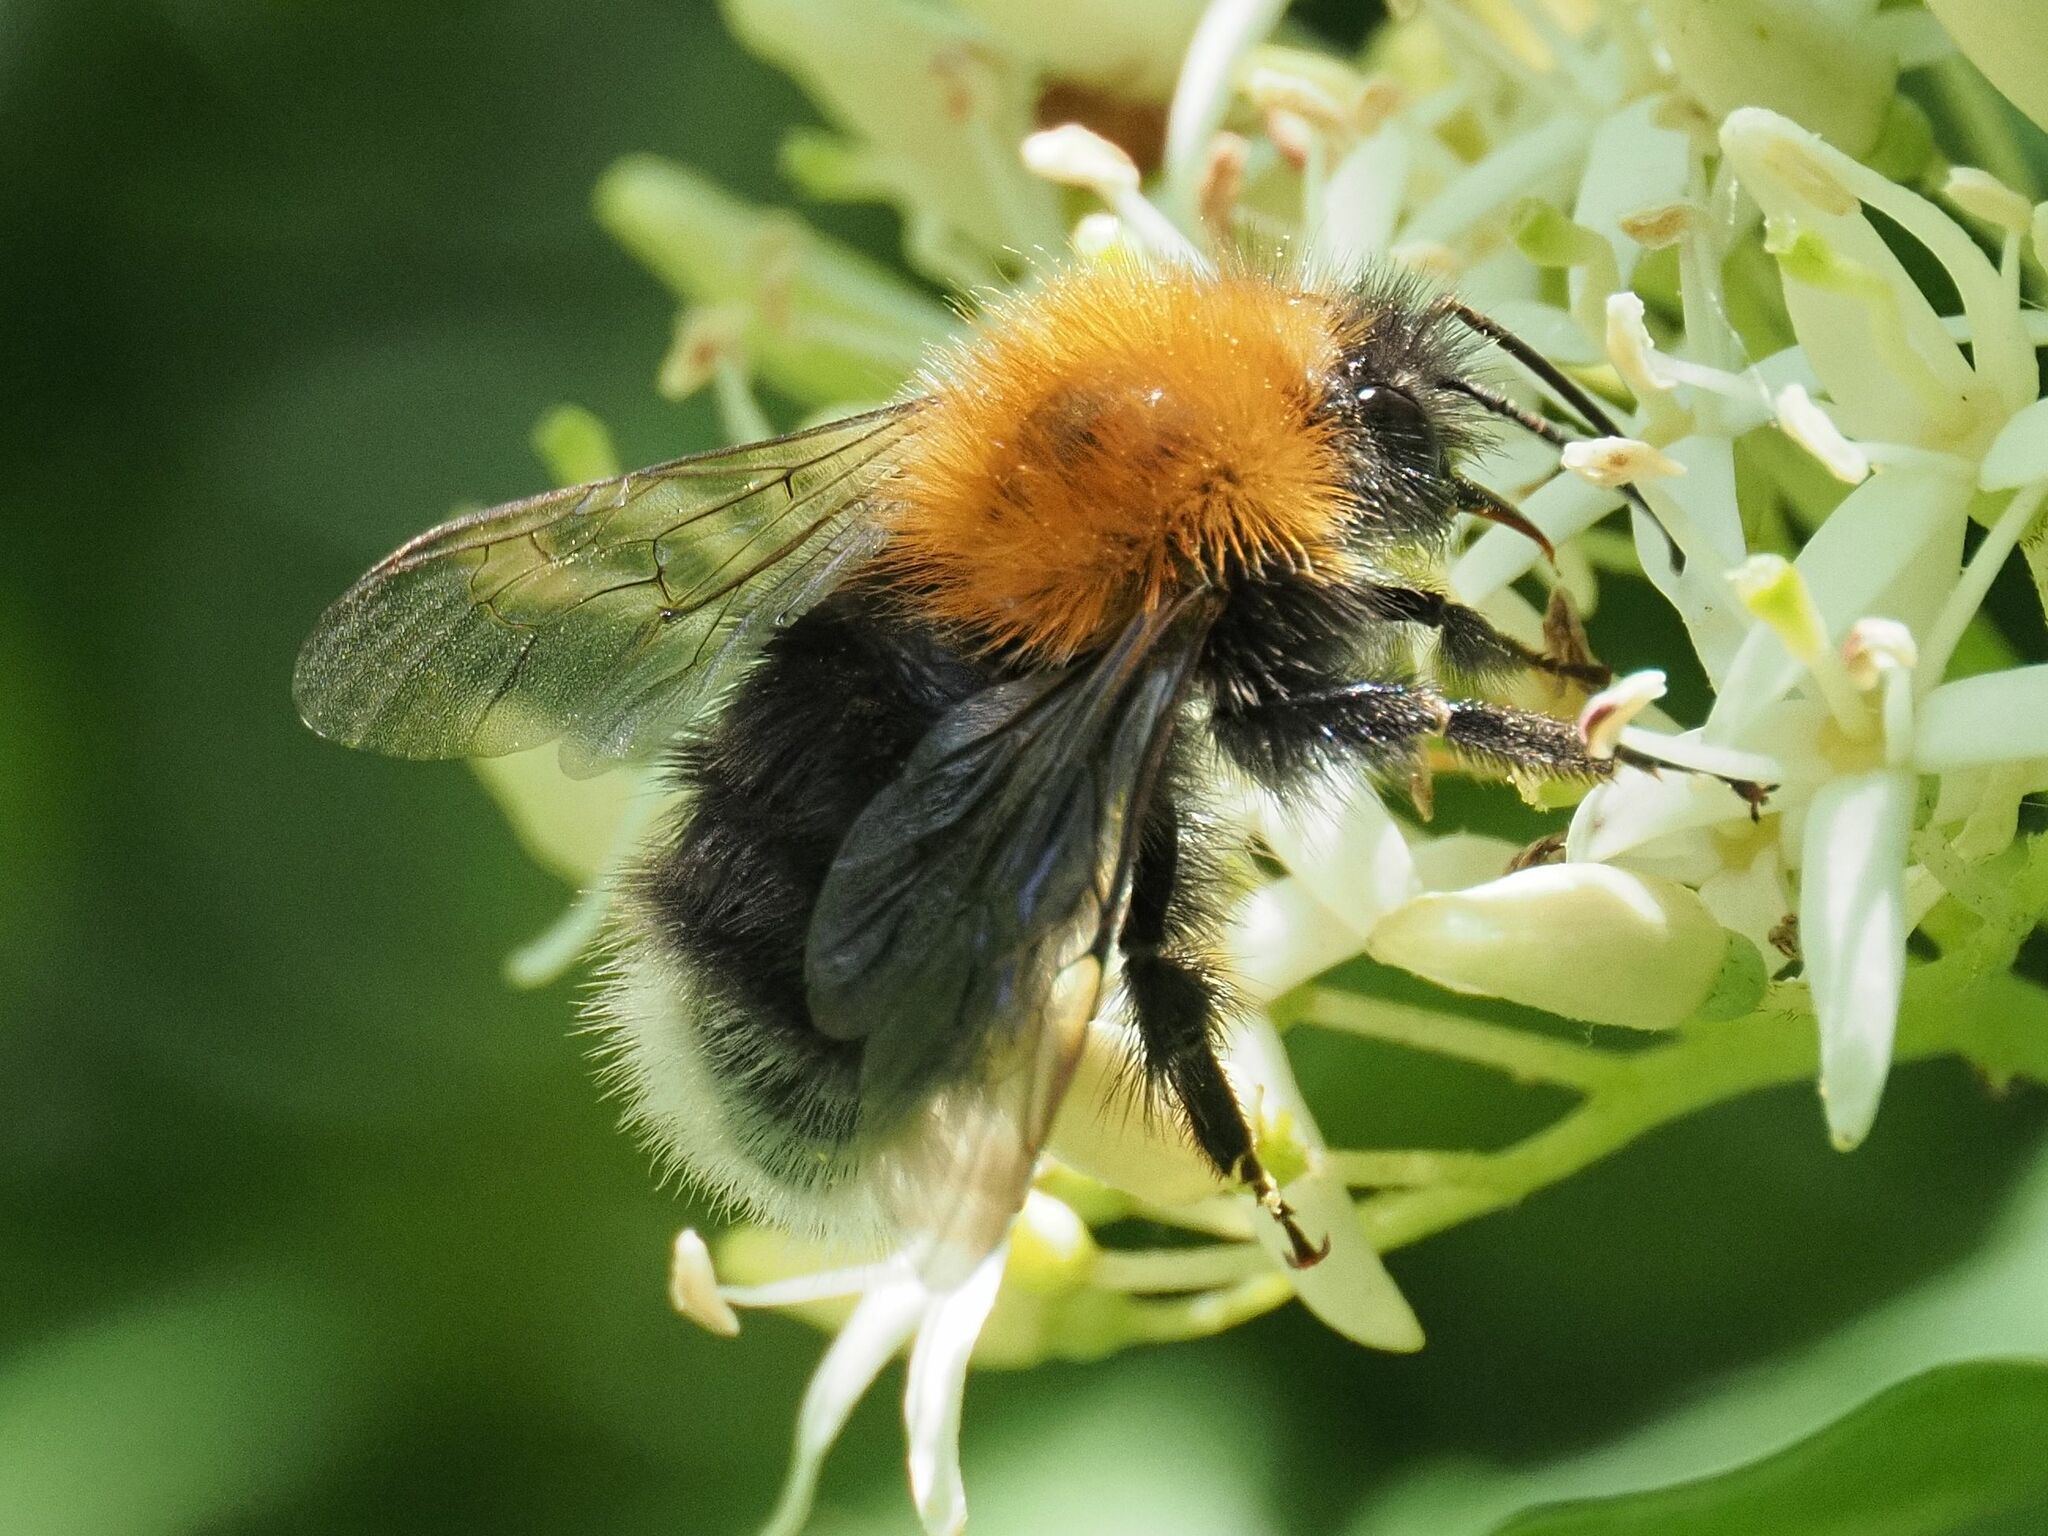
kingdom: Animalia
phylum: Arthropoda
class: Insecta
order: Hymenoptera
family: Apidae
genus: Bombus
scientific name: Bombus hypnorum
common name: New garden bumblebee
